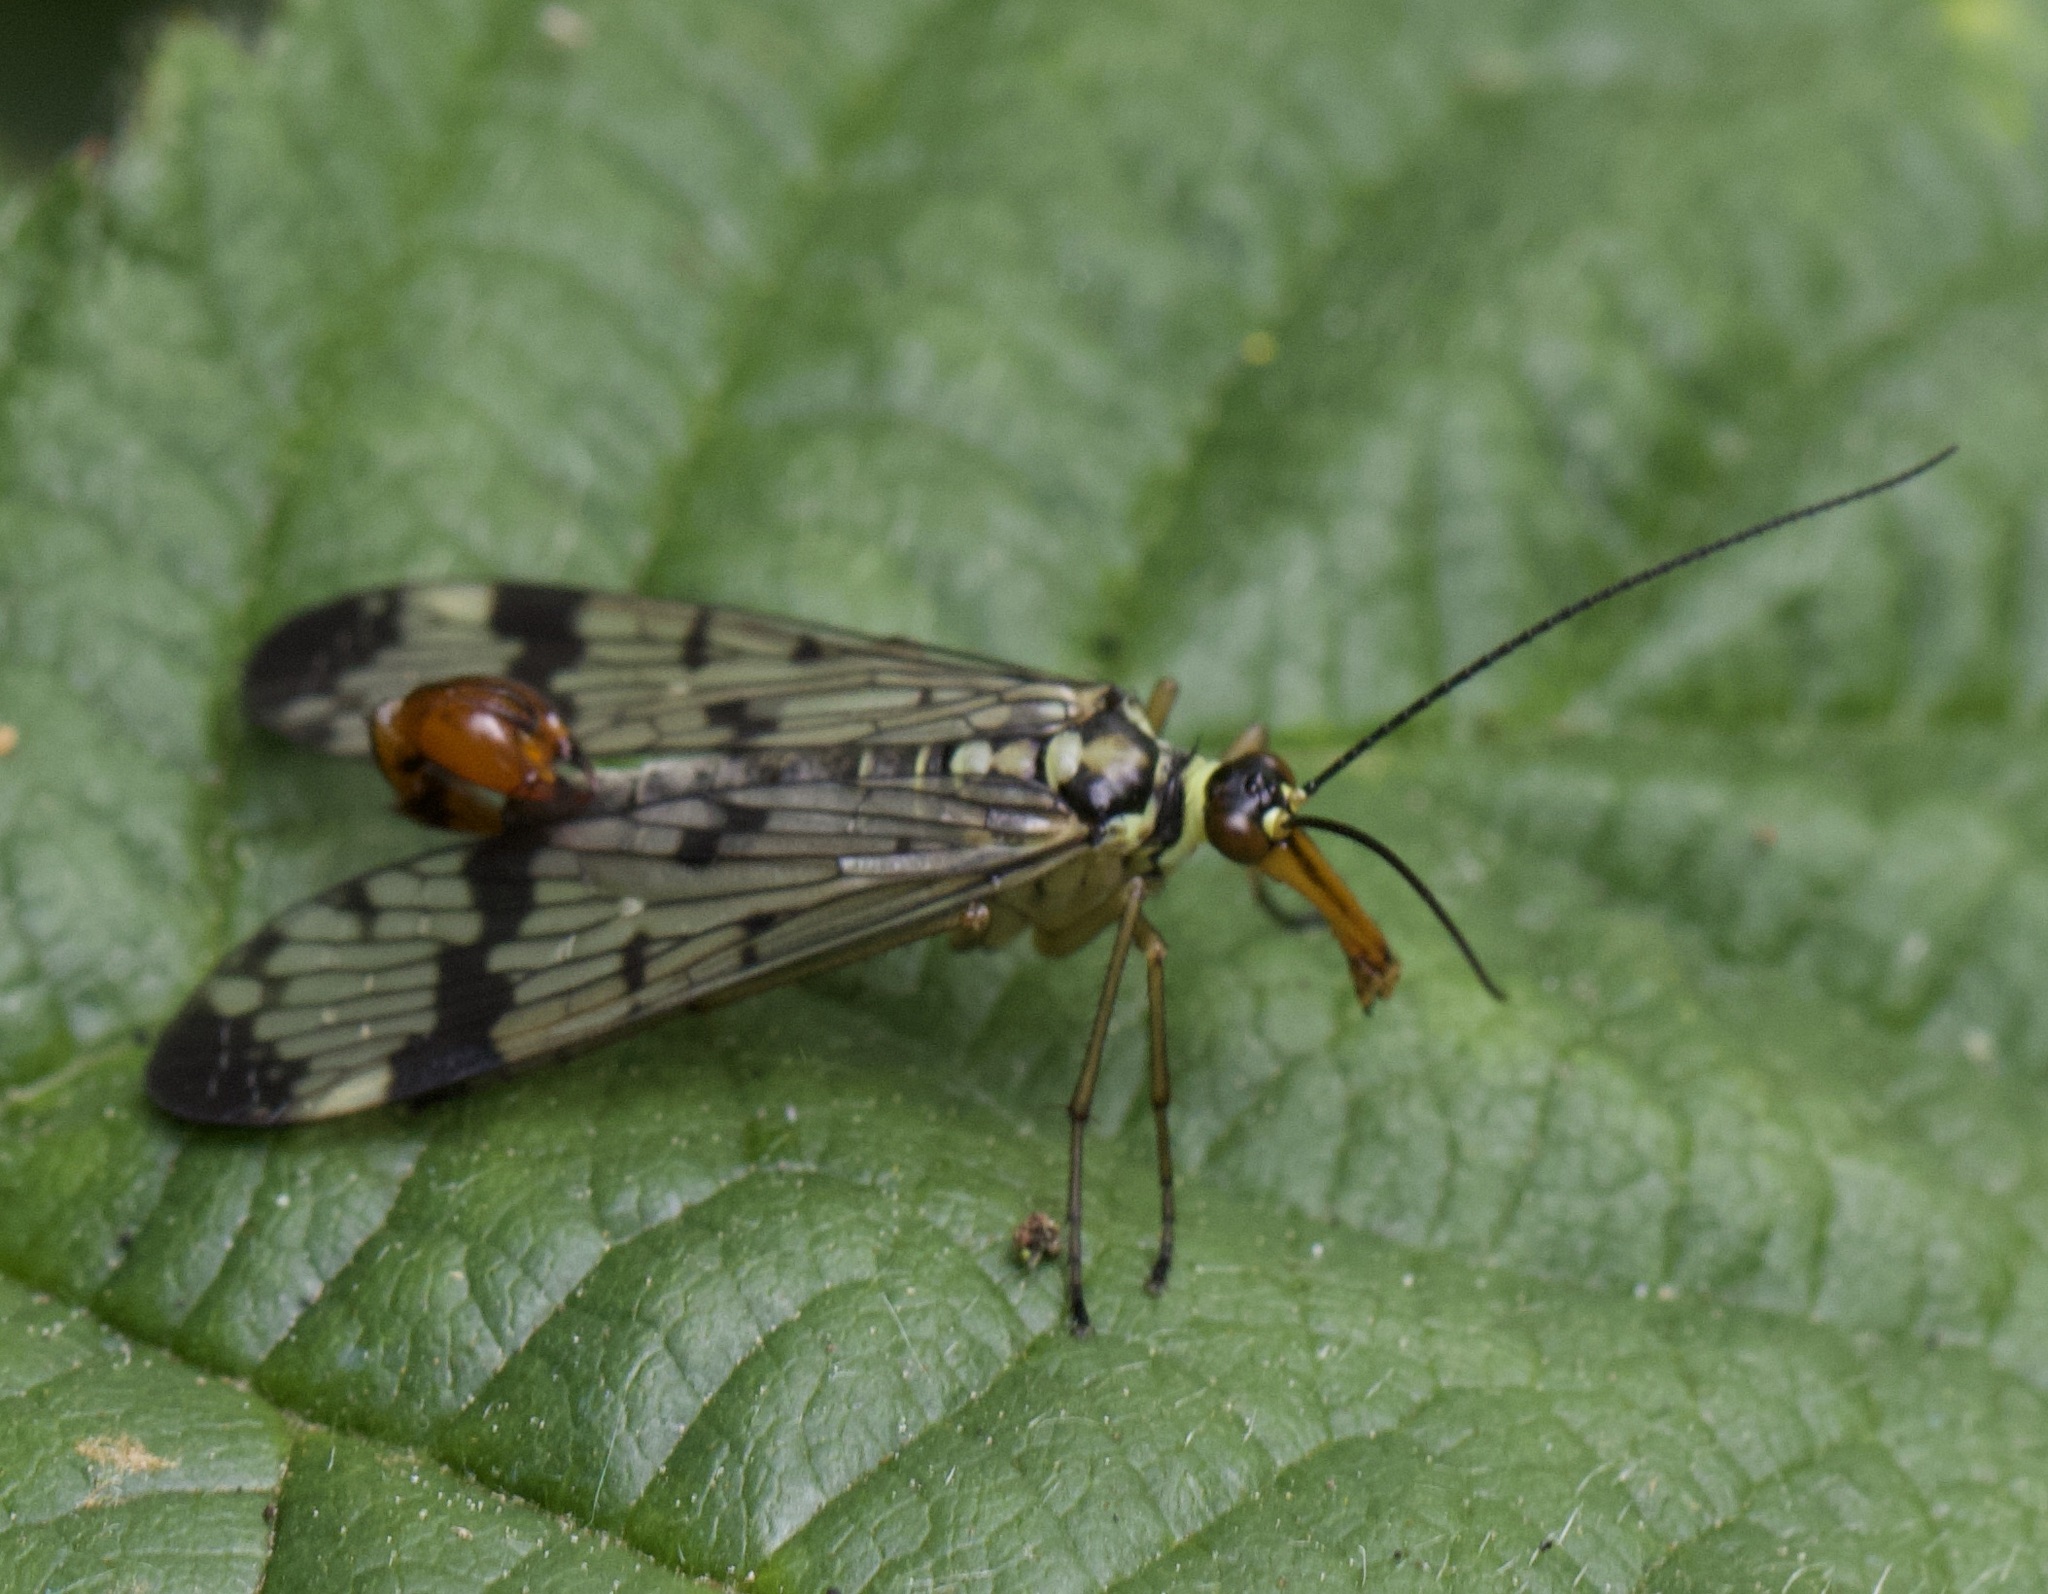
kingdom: Animalia
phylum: Arthropoda
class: Insecta
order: Mecoptera
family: Panorpidae
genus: Panorpa
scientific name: Panorpa communis
